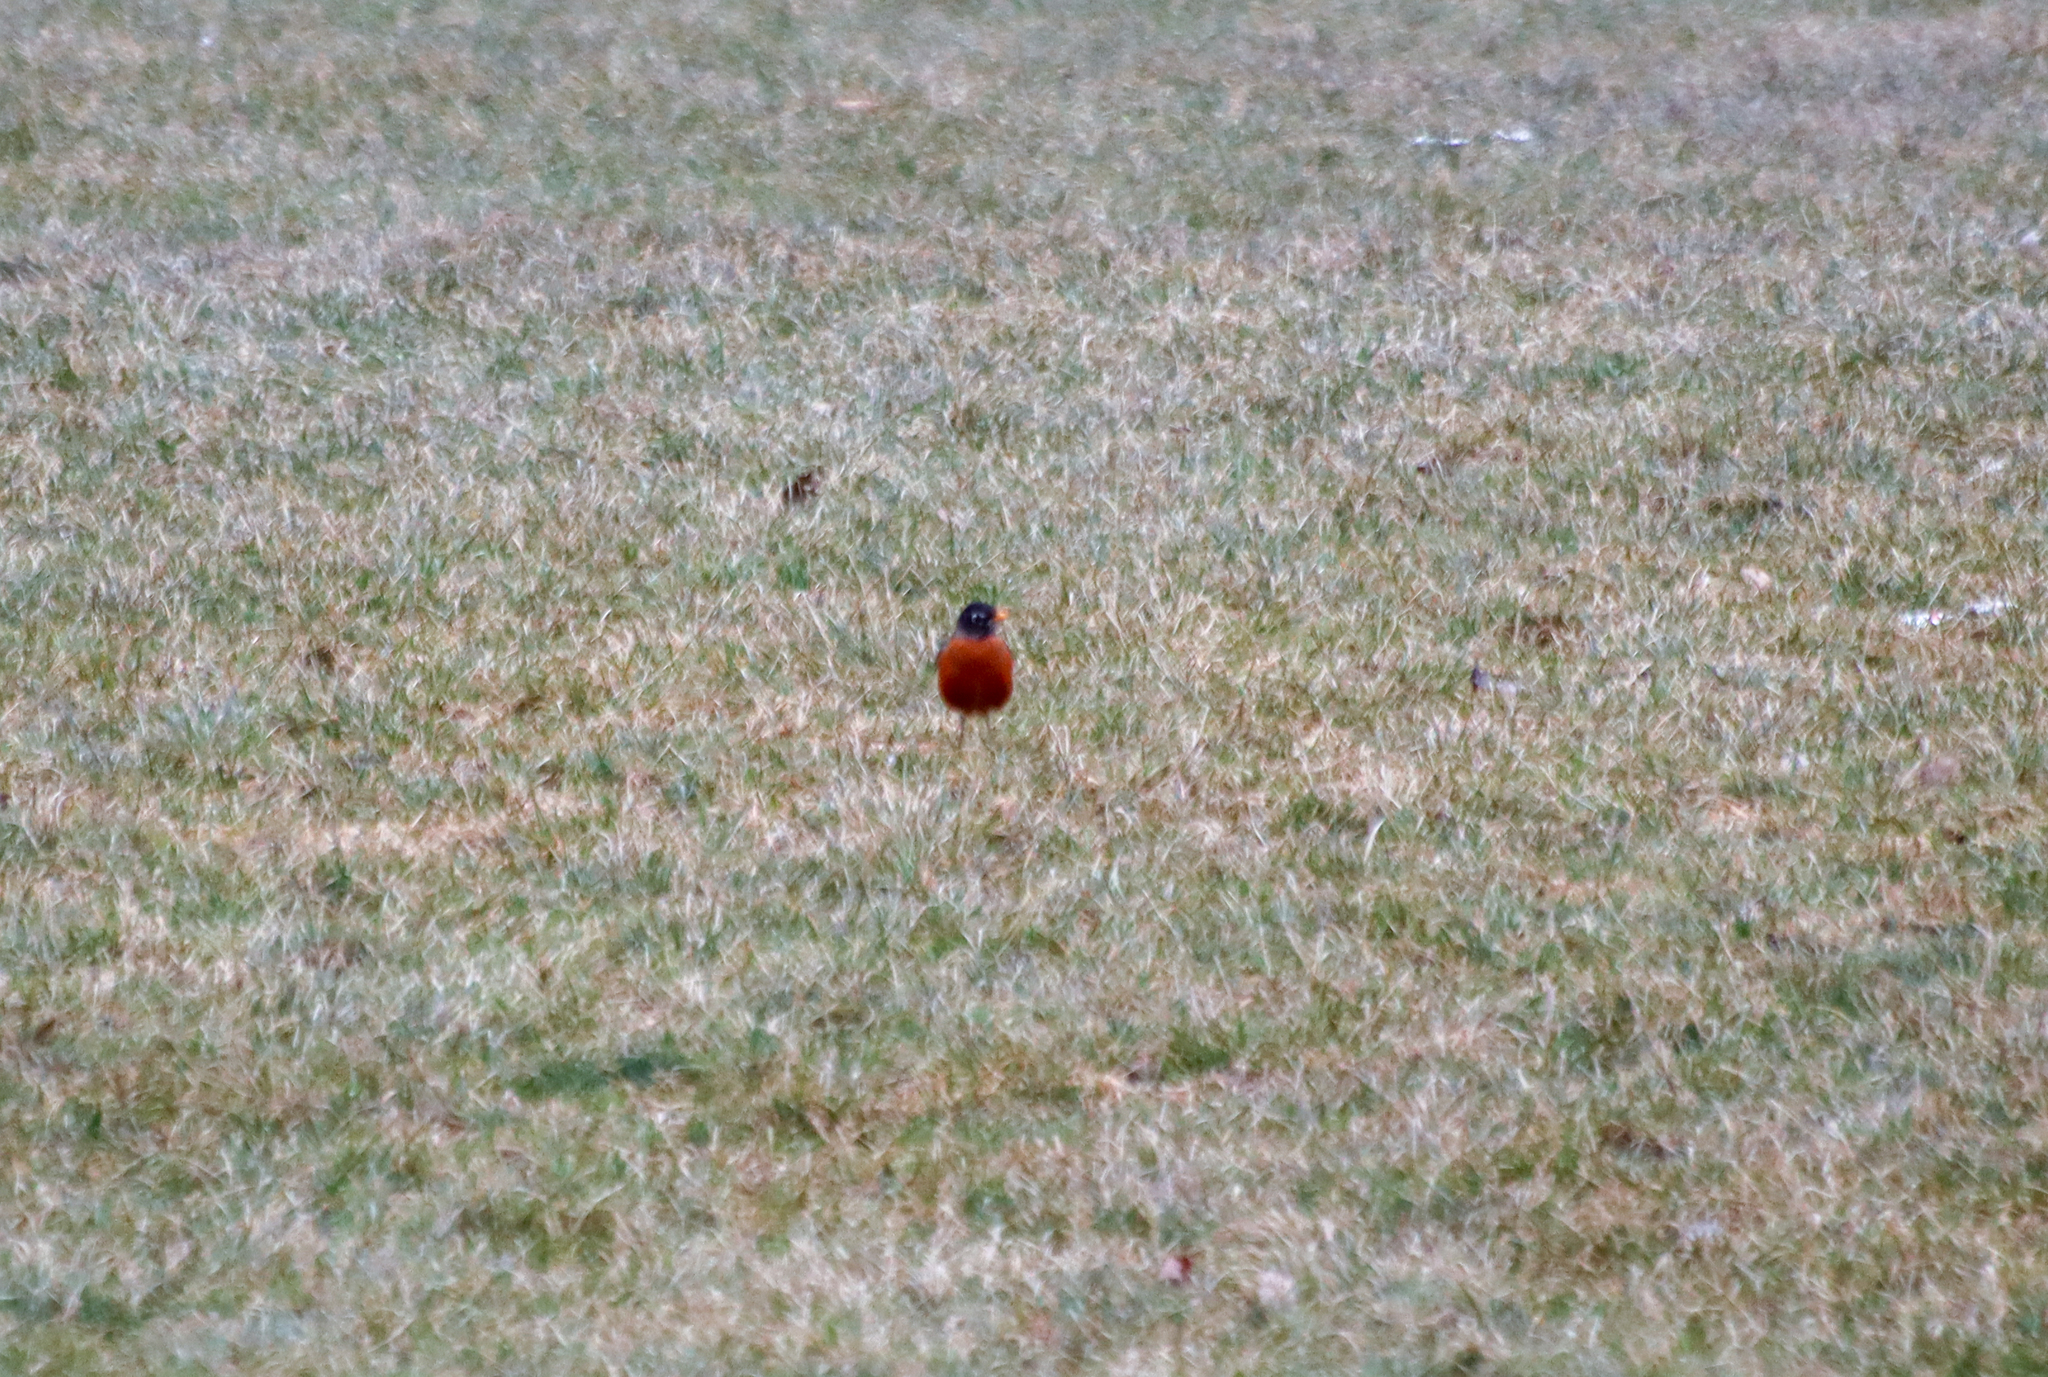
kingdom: Animalia
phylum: Chordata
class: Aves
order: Passeriformes
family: Turdidae
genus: Turdus
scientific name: Turdus migratorius
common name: American robin
